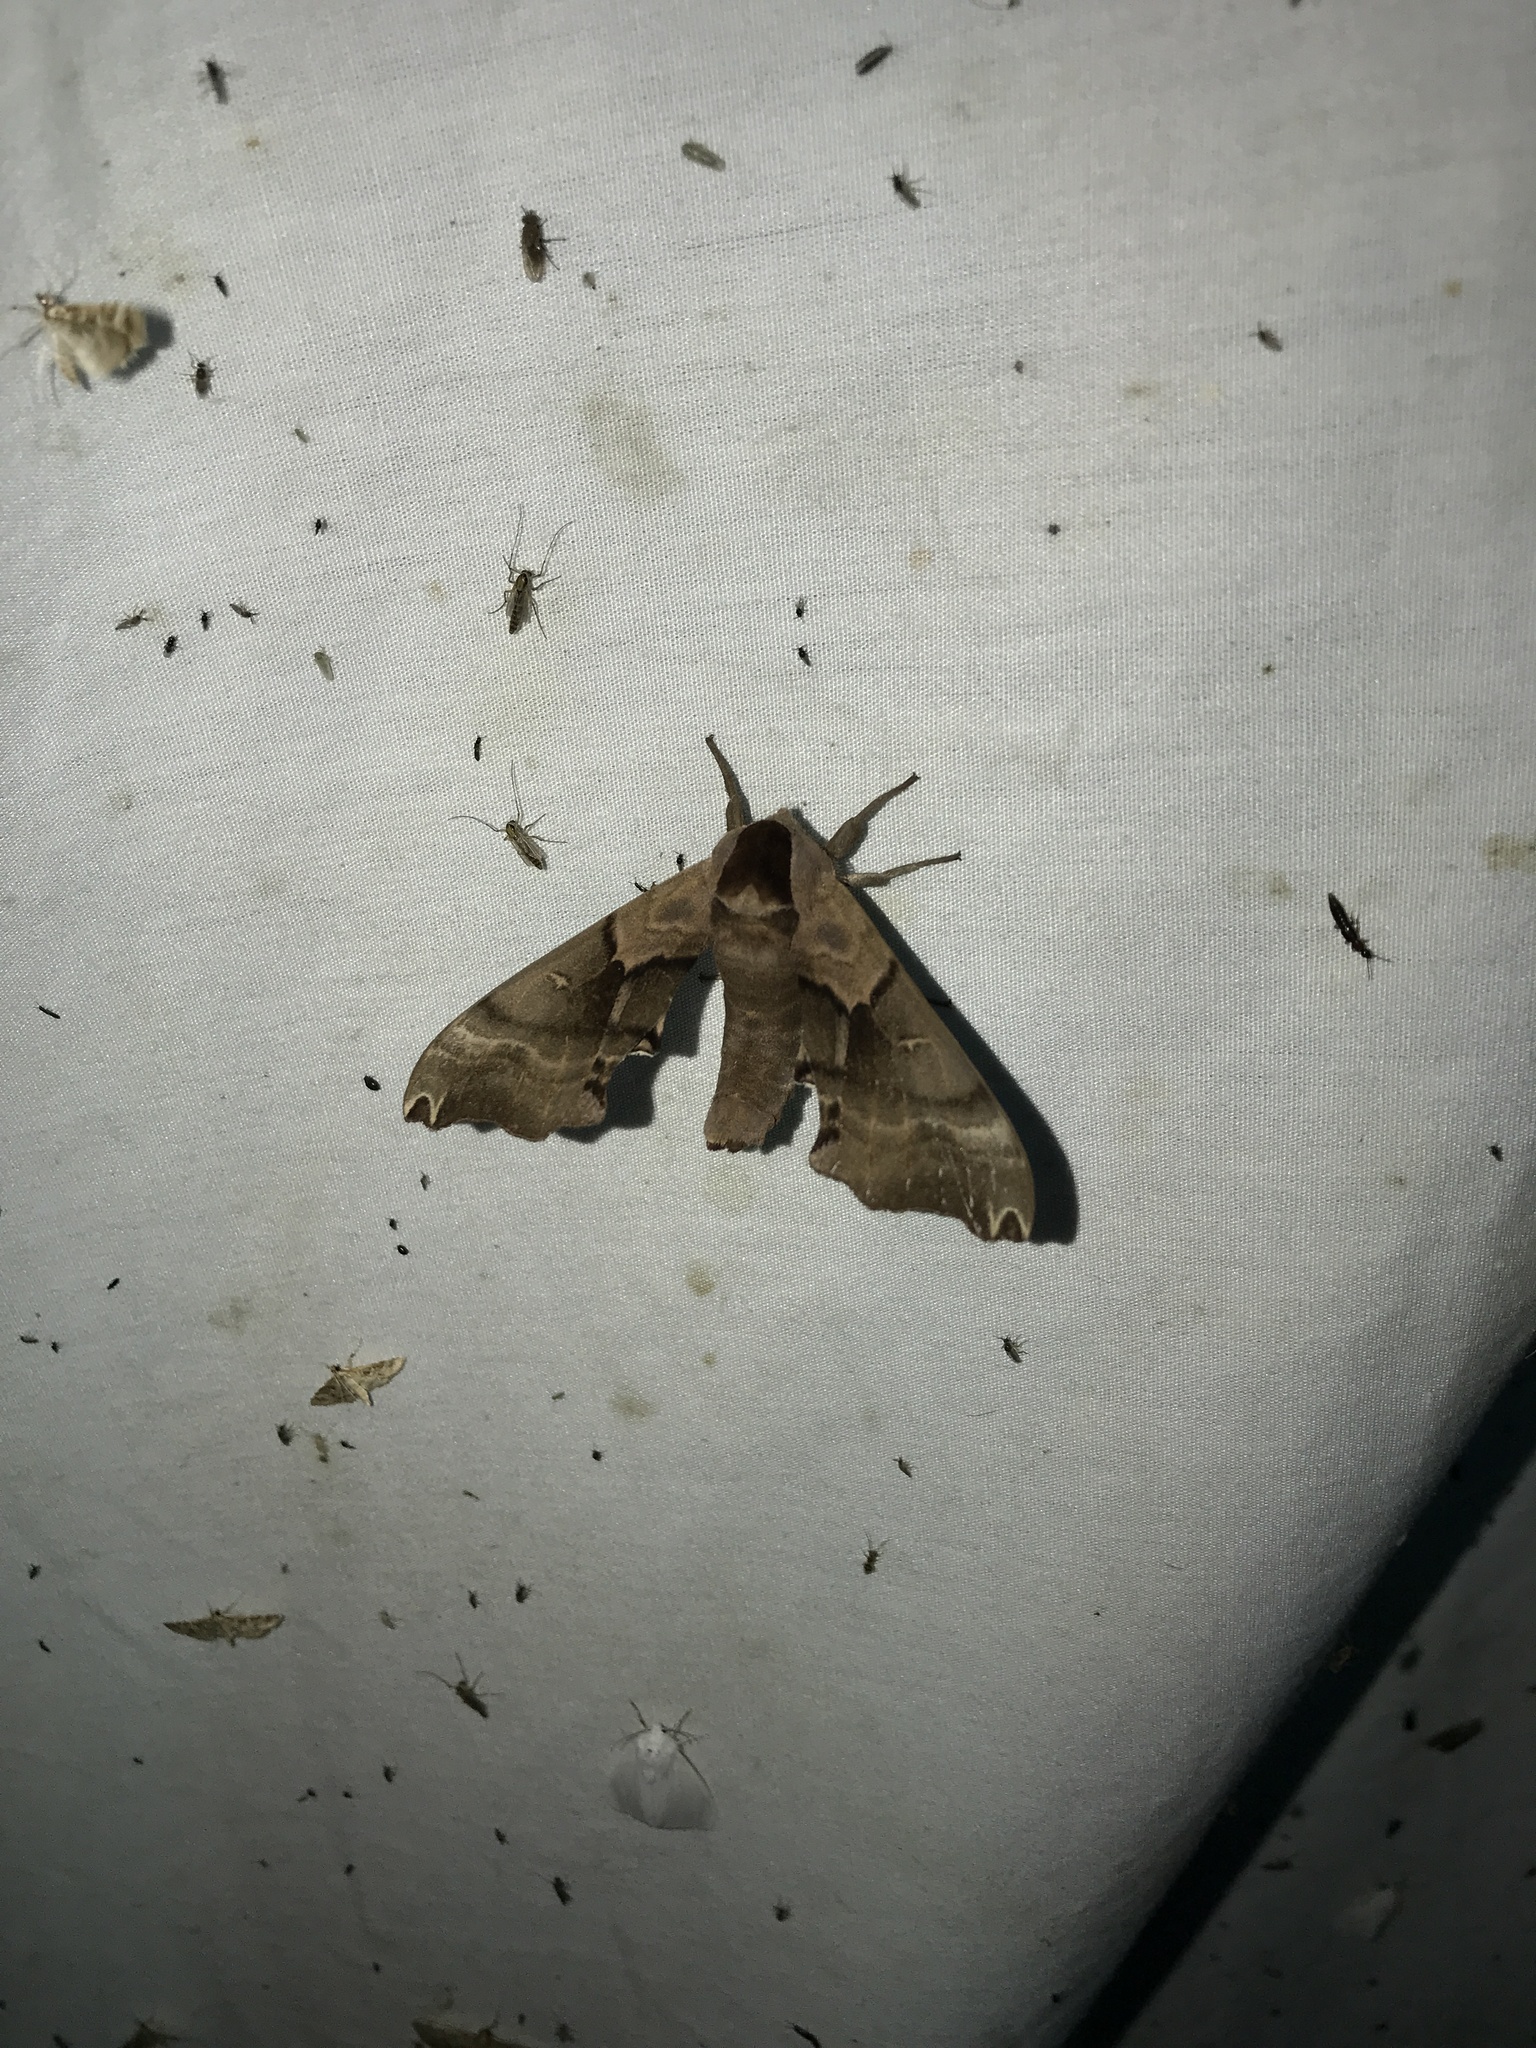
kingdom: Animalia
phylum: Arthropoda
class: Insecta
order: Lepidoptera
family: Sphingidae
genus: Smerinthus
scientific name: Smerinthus jamaicensis
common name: Twin spotted sphinx
